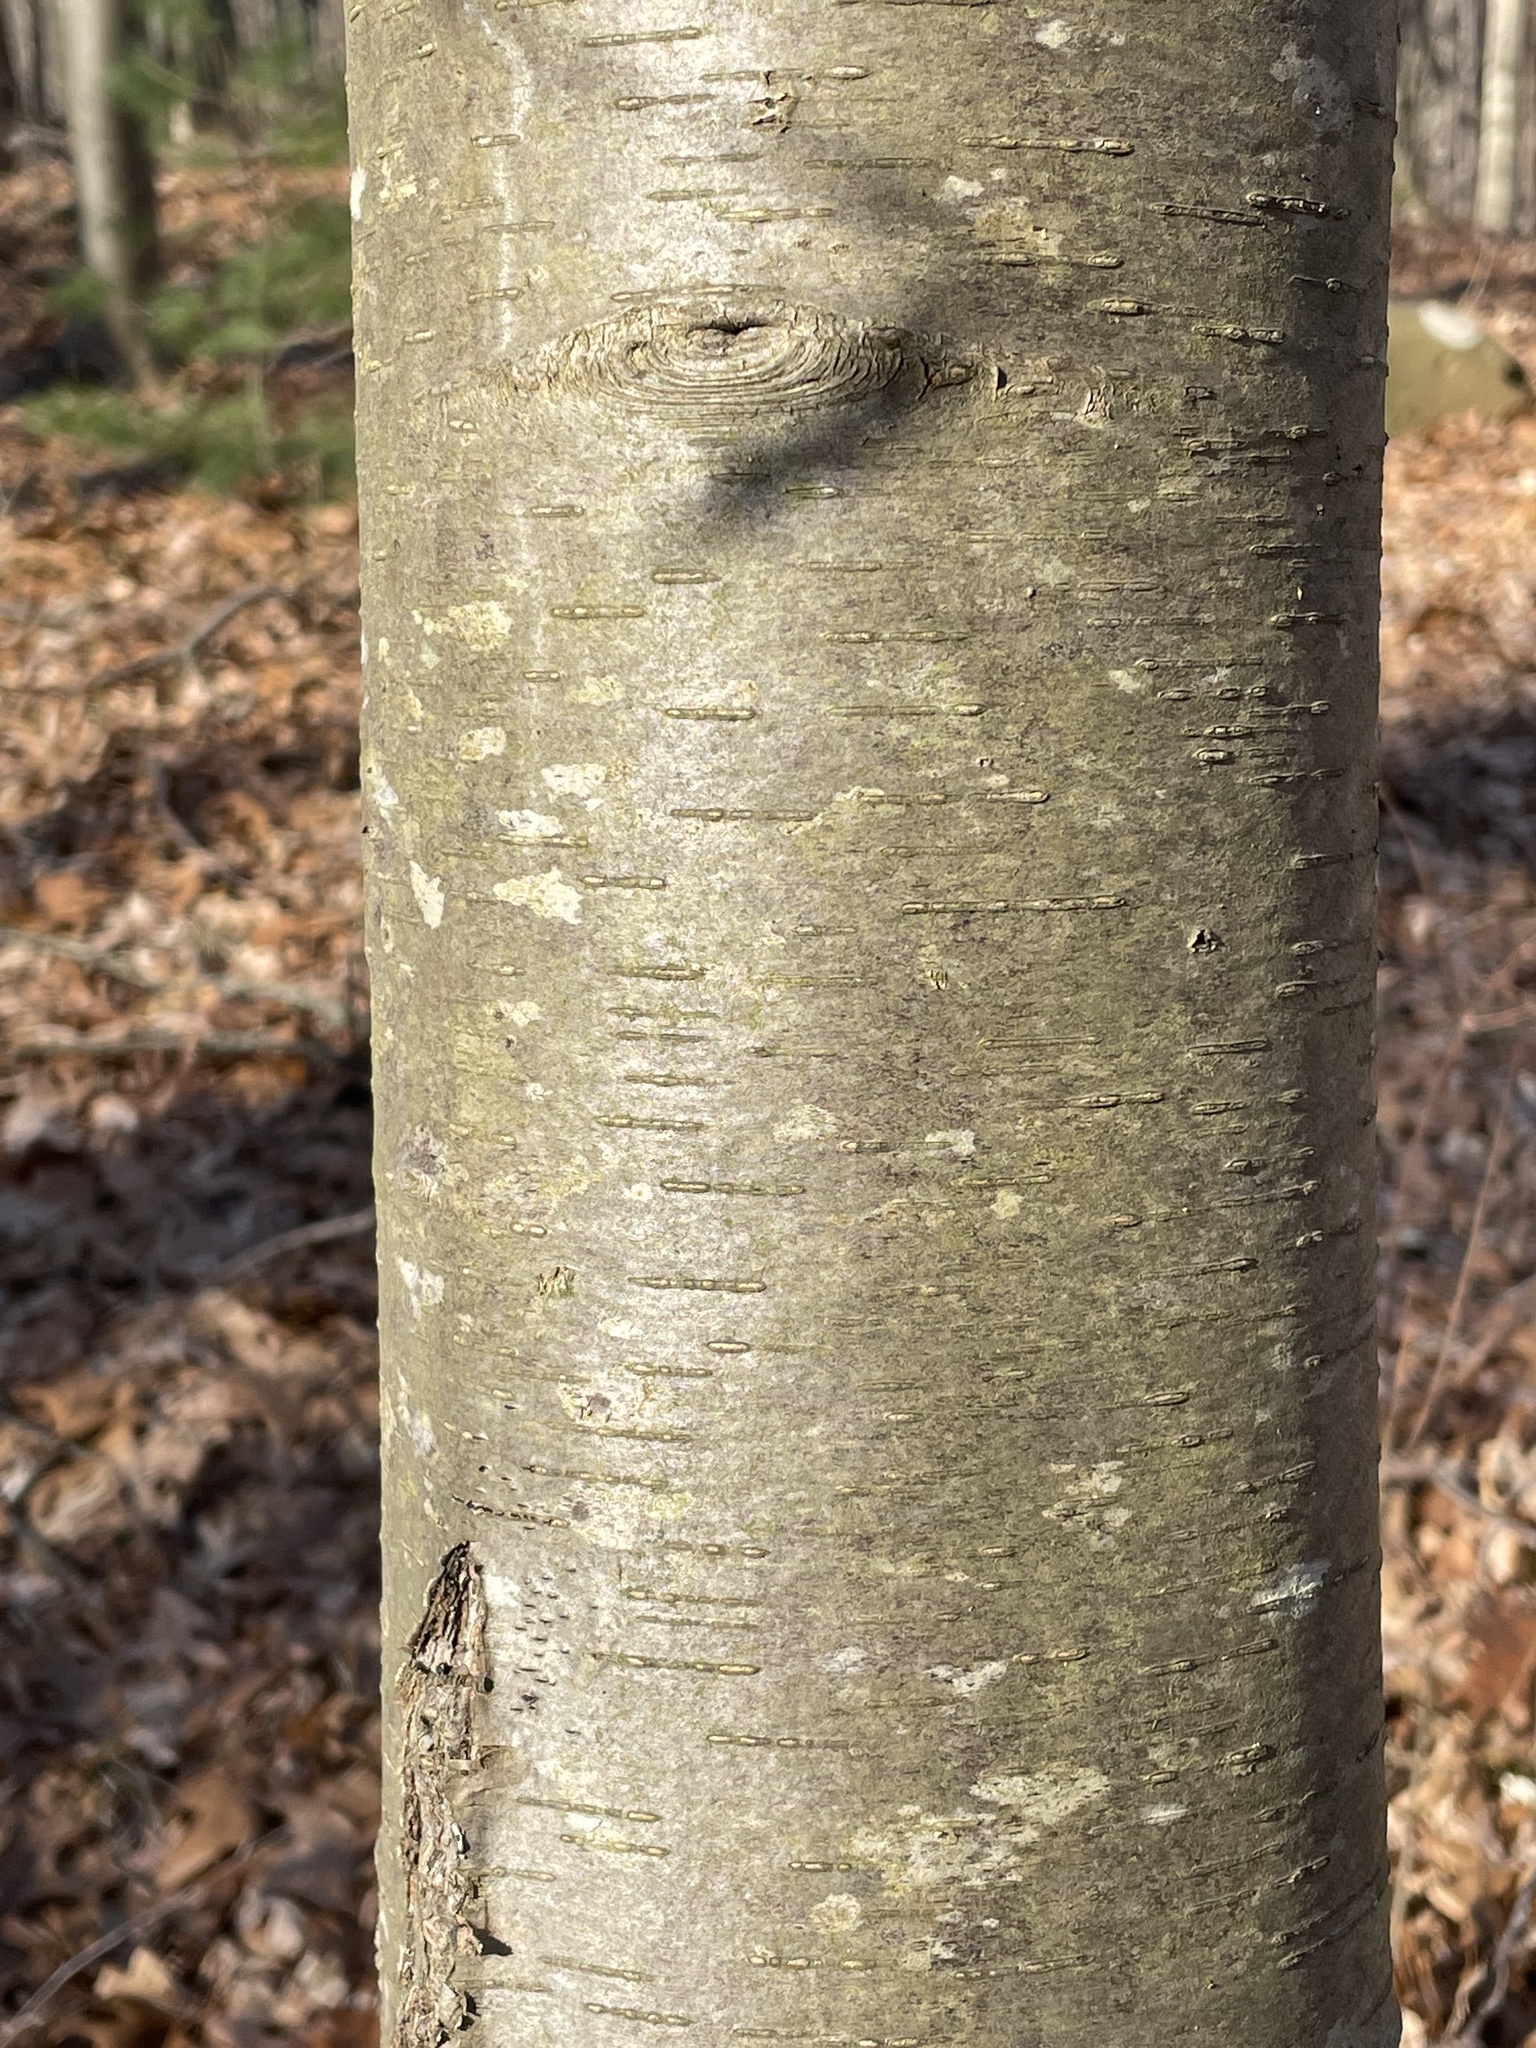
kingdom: Plantae
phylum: Tracheophyta
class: Magnoliopsida
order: Fagales
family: Betulaceae
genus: Betula
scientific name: Betula lenta
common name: Black birch
